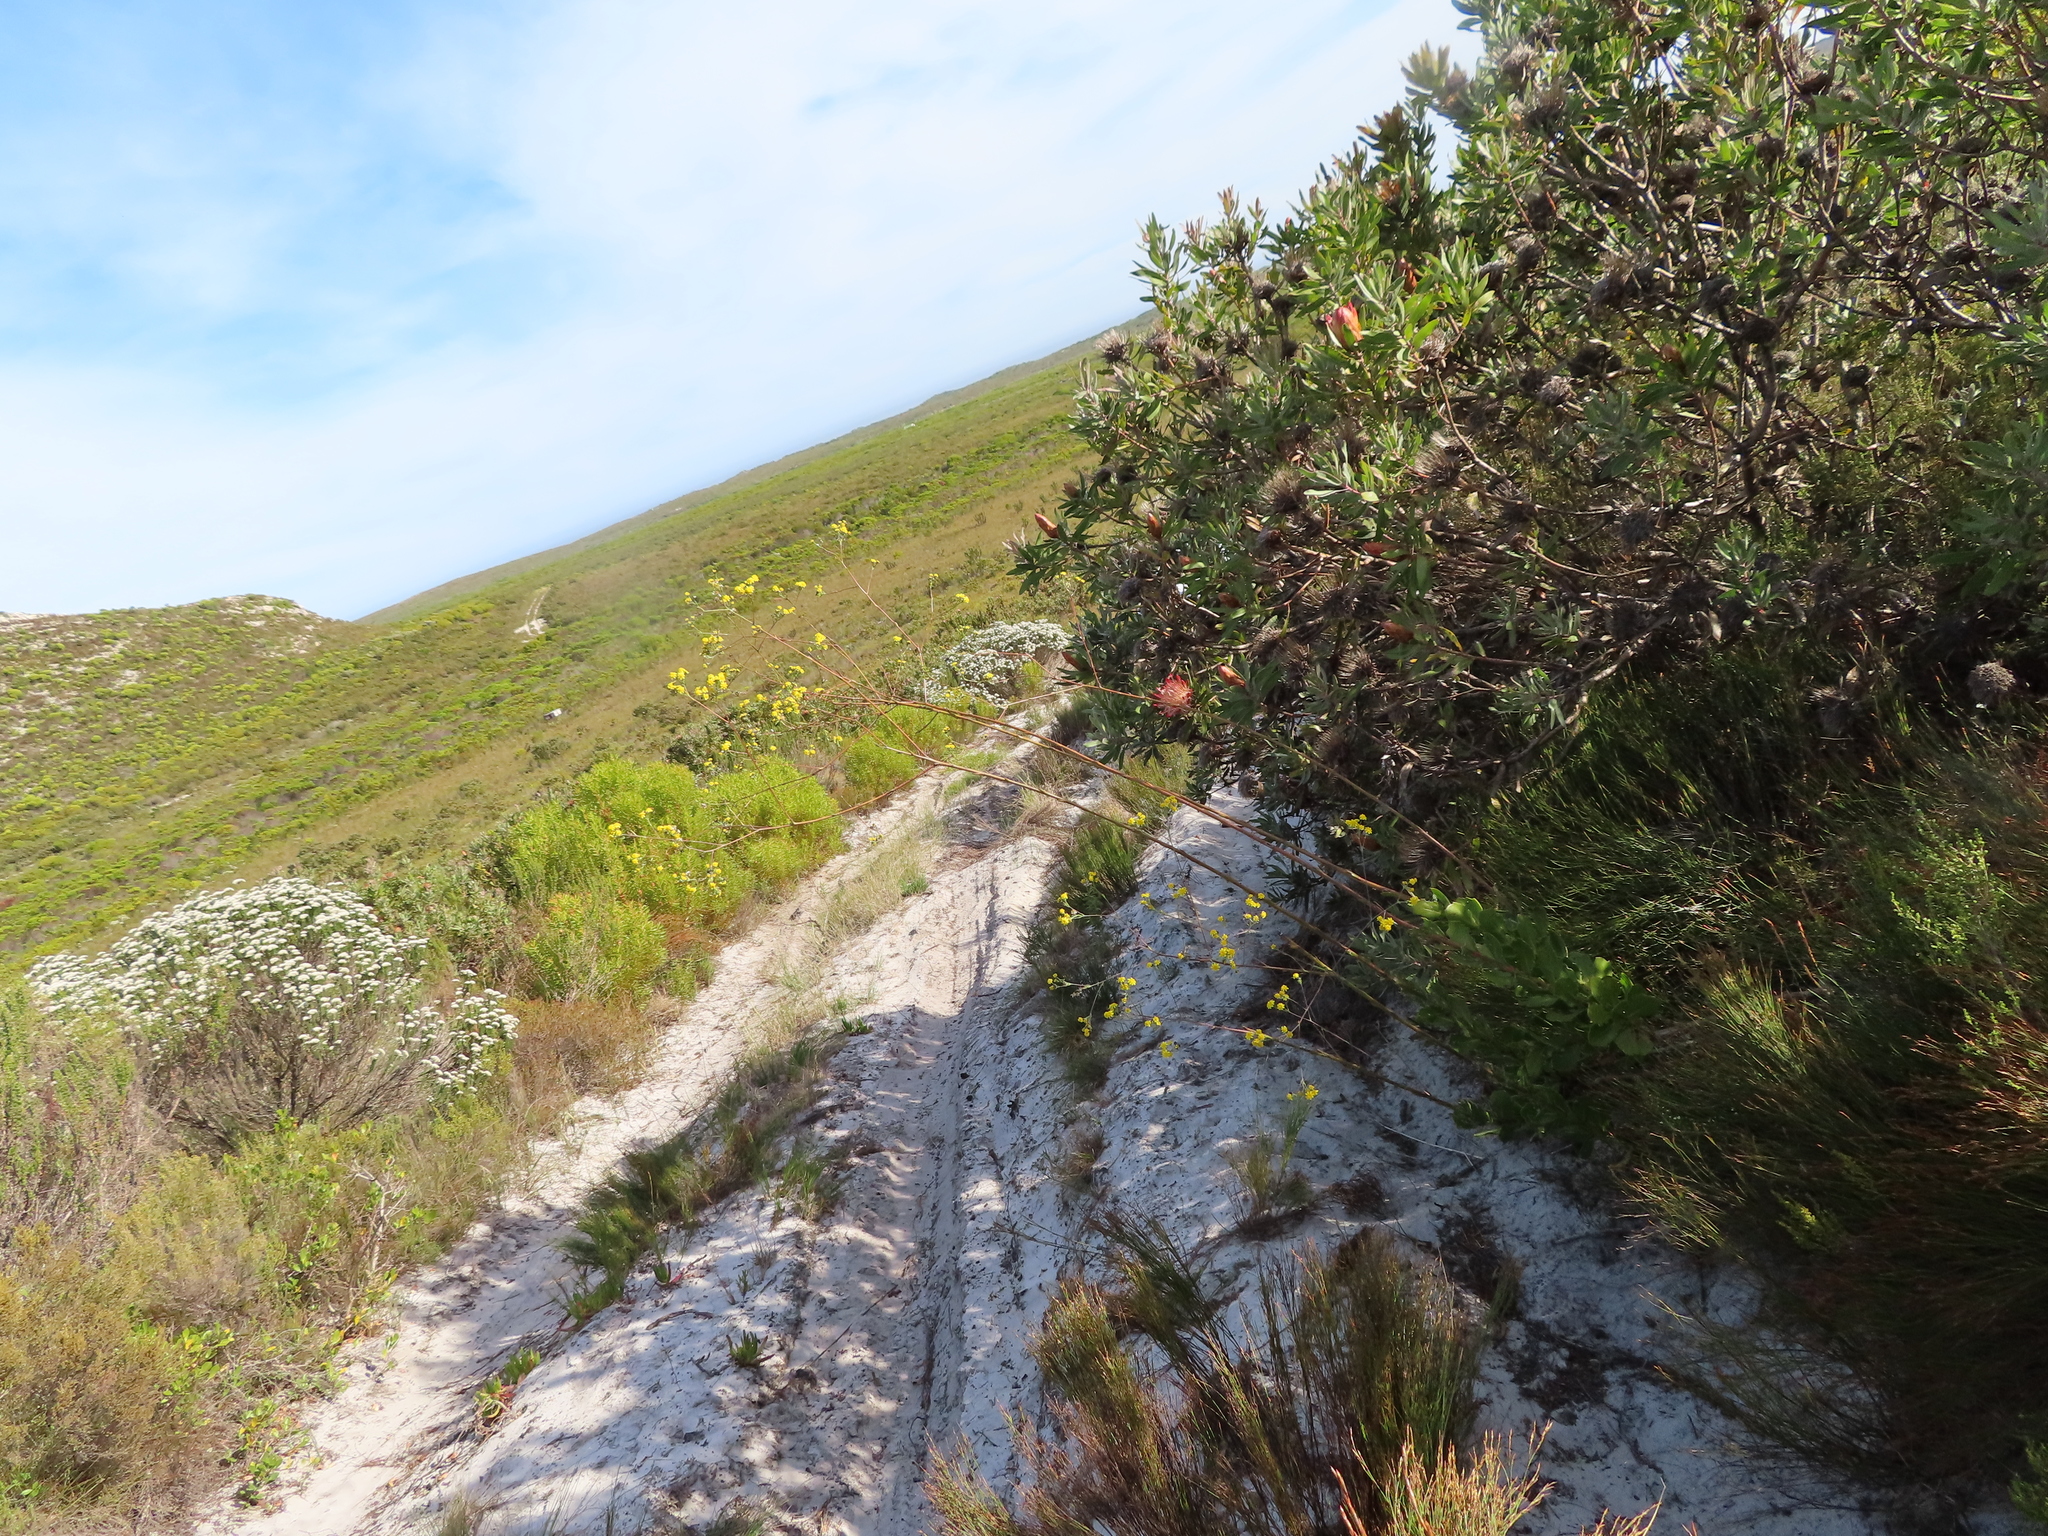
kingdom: Plantae
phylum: Tracheophyta
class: Magnoliopsida
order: Proteales
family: Proteaceae
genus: Protea
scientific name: Protea susannae
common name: Foetid-leaf sugarbush
